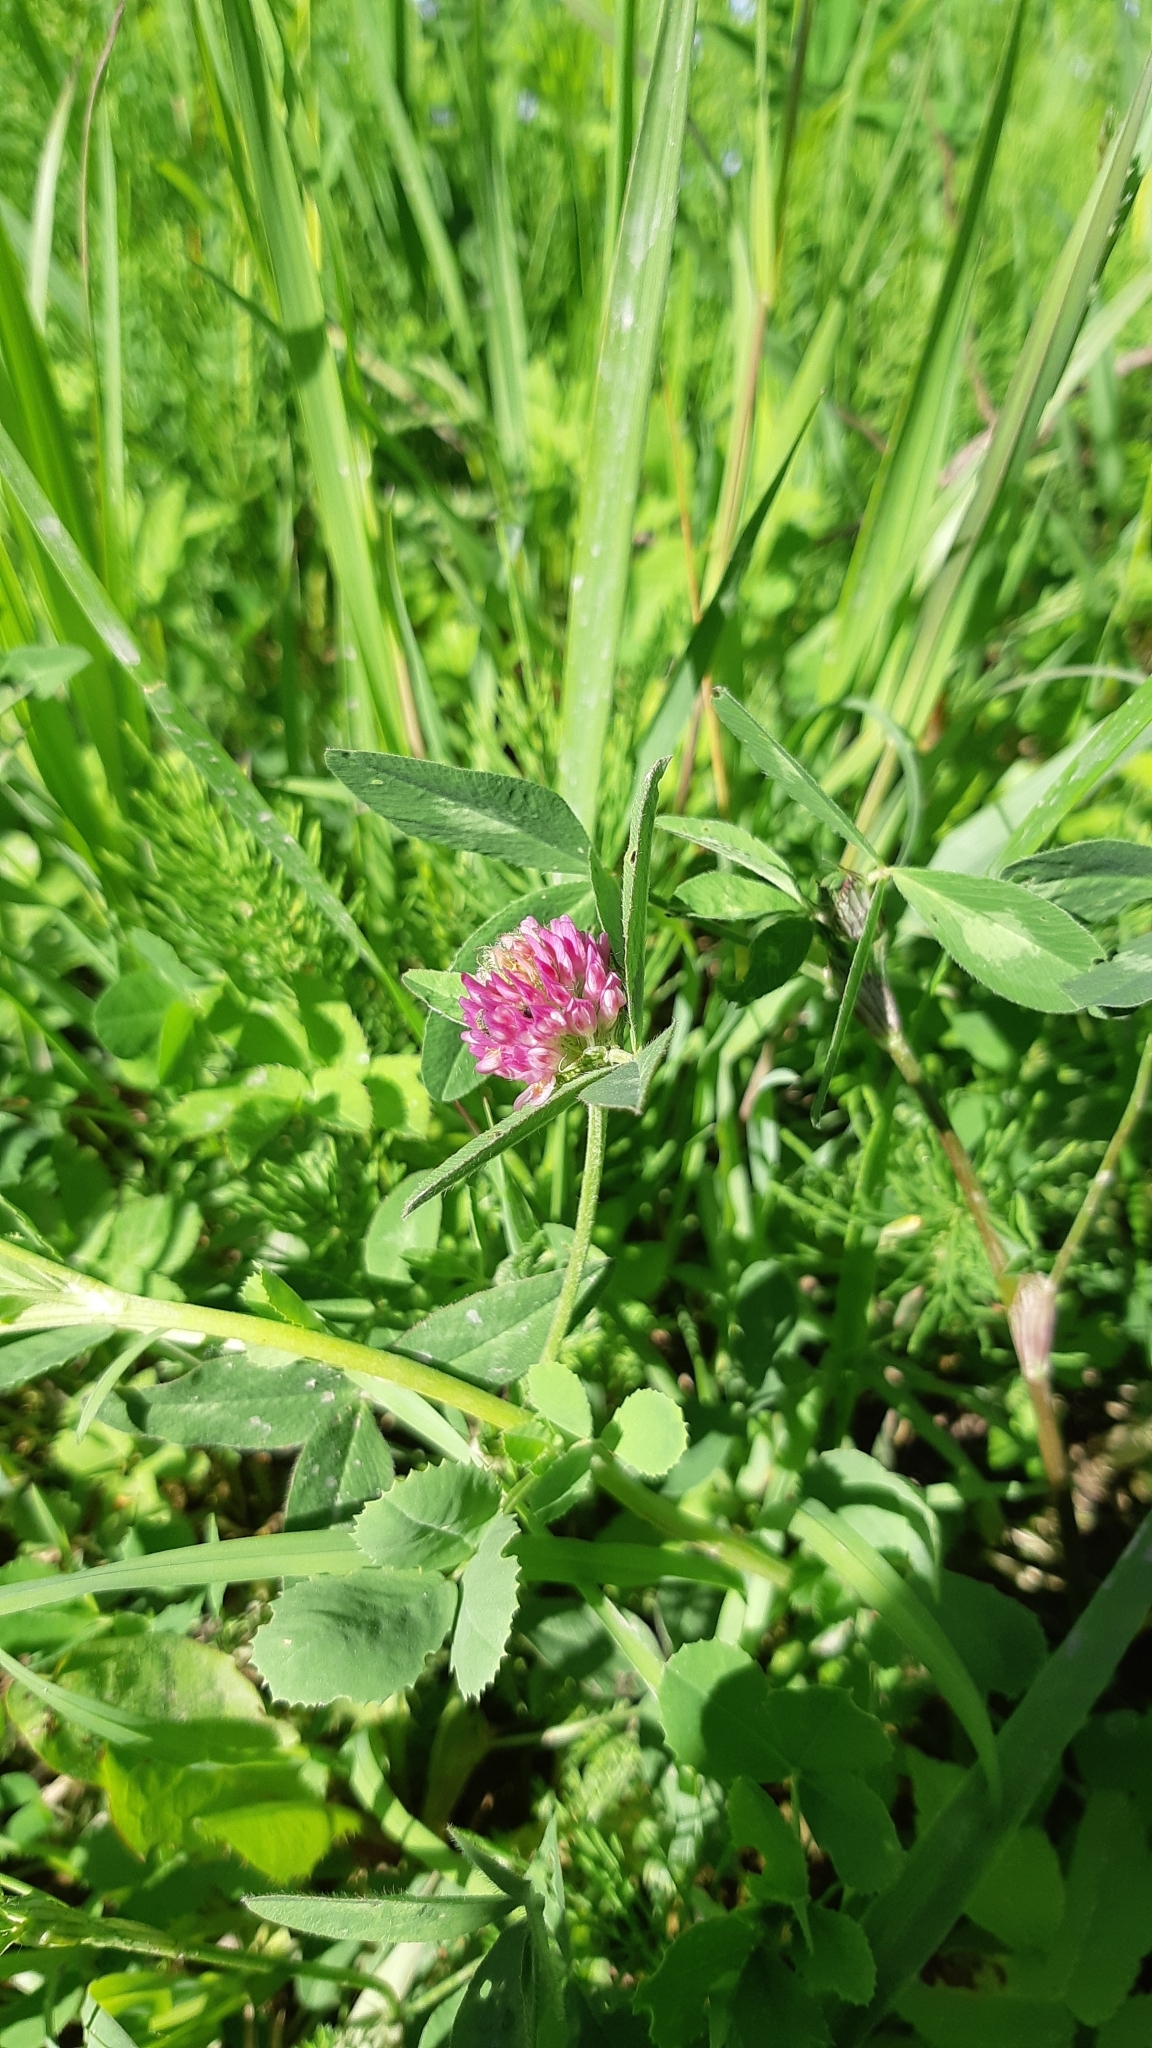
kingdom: Plantae
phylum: Tracheophyta
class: Magnoliopsida
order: Fabales
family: Fabaceae
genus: Trifolium
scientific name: Trifolium pratense
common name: Red clover
